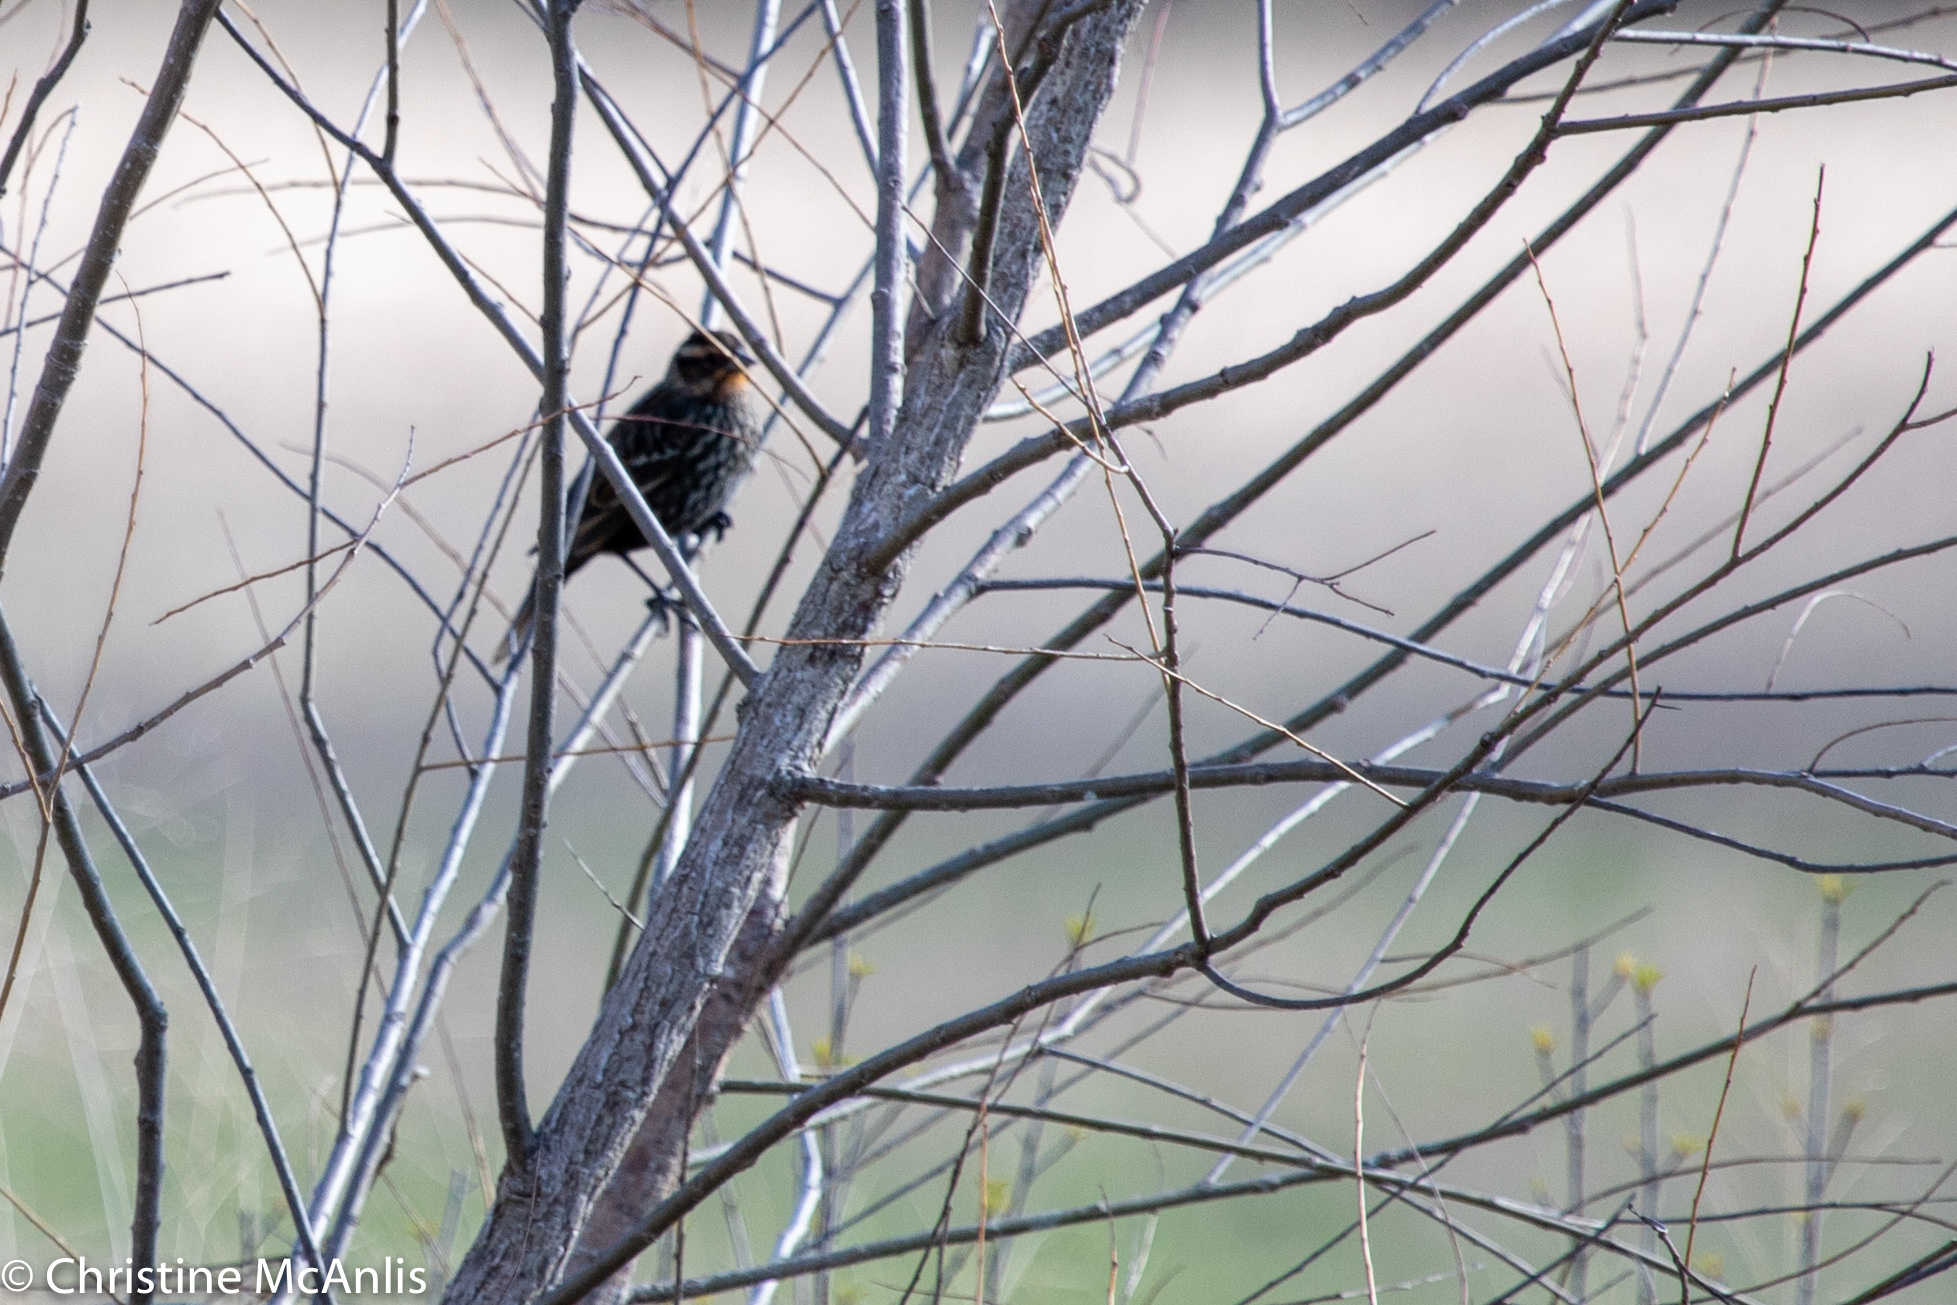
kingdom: Animalia
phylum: Chordata
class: Aves
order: Passeriformes
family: Icteridae
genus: Agelaius
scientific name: Agelaius phoeniceus
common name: Red-winged blackbird
